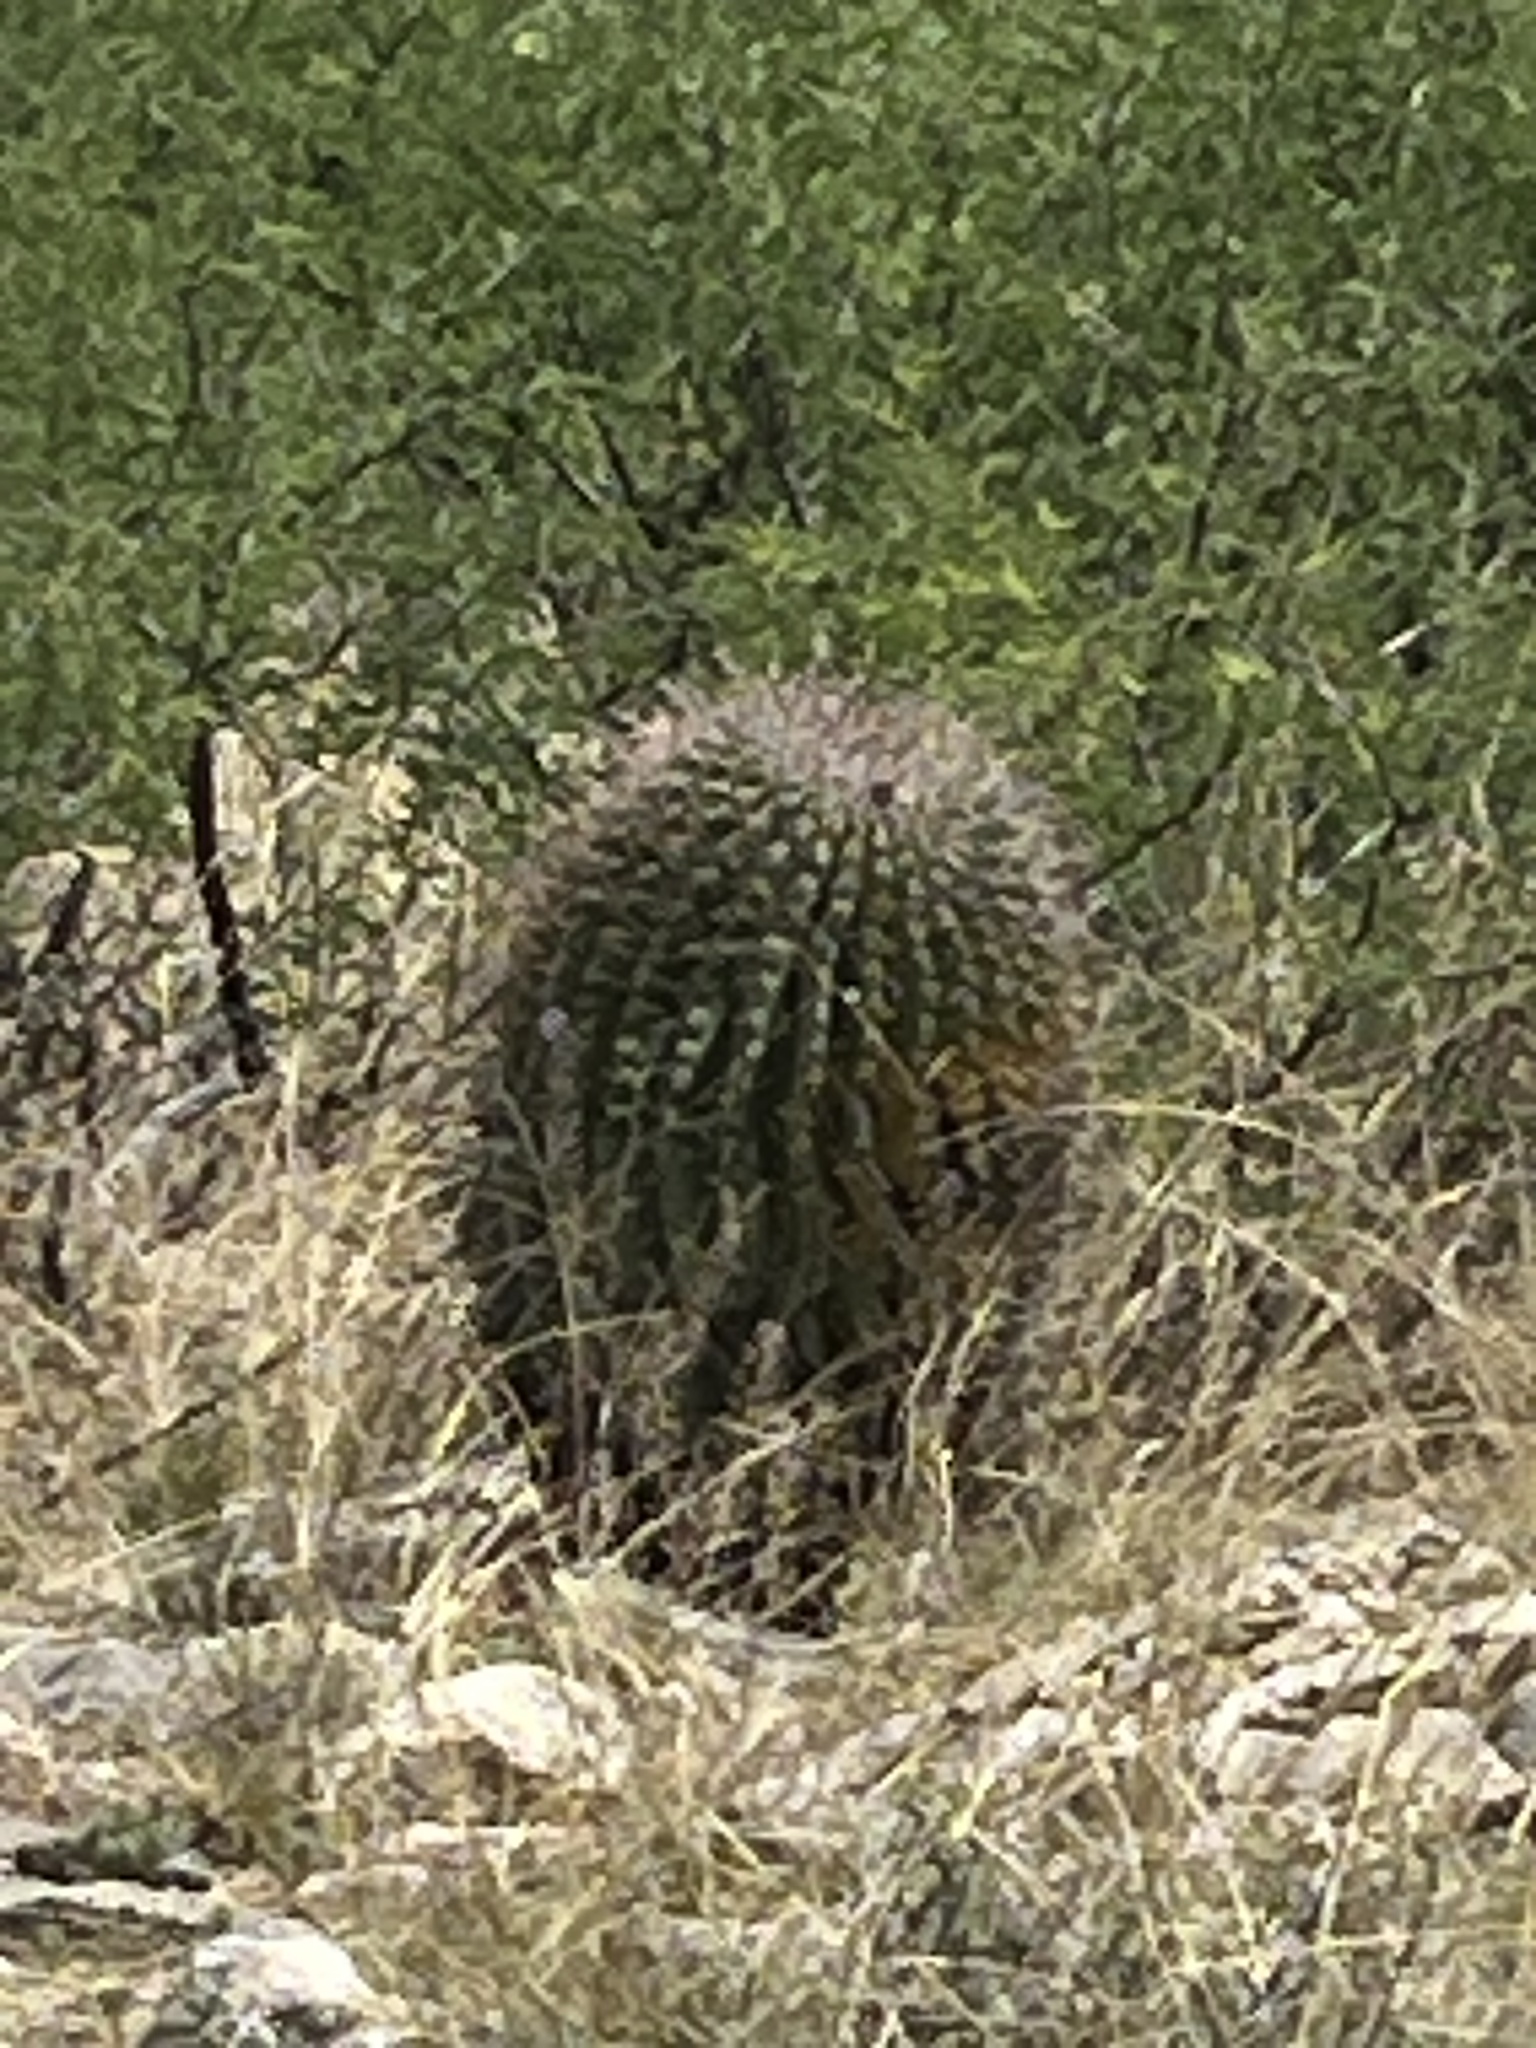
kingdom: Plantae
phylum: Tracheophyta
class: Magnoliopsida
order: Caryophyllales
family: Cactaceae
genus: Ferocactus
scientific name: Ferocactus wislizeni
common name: Candy barrel cactus
